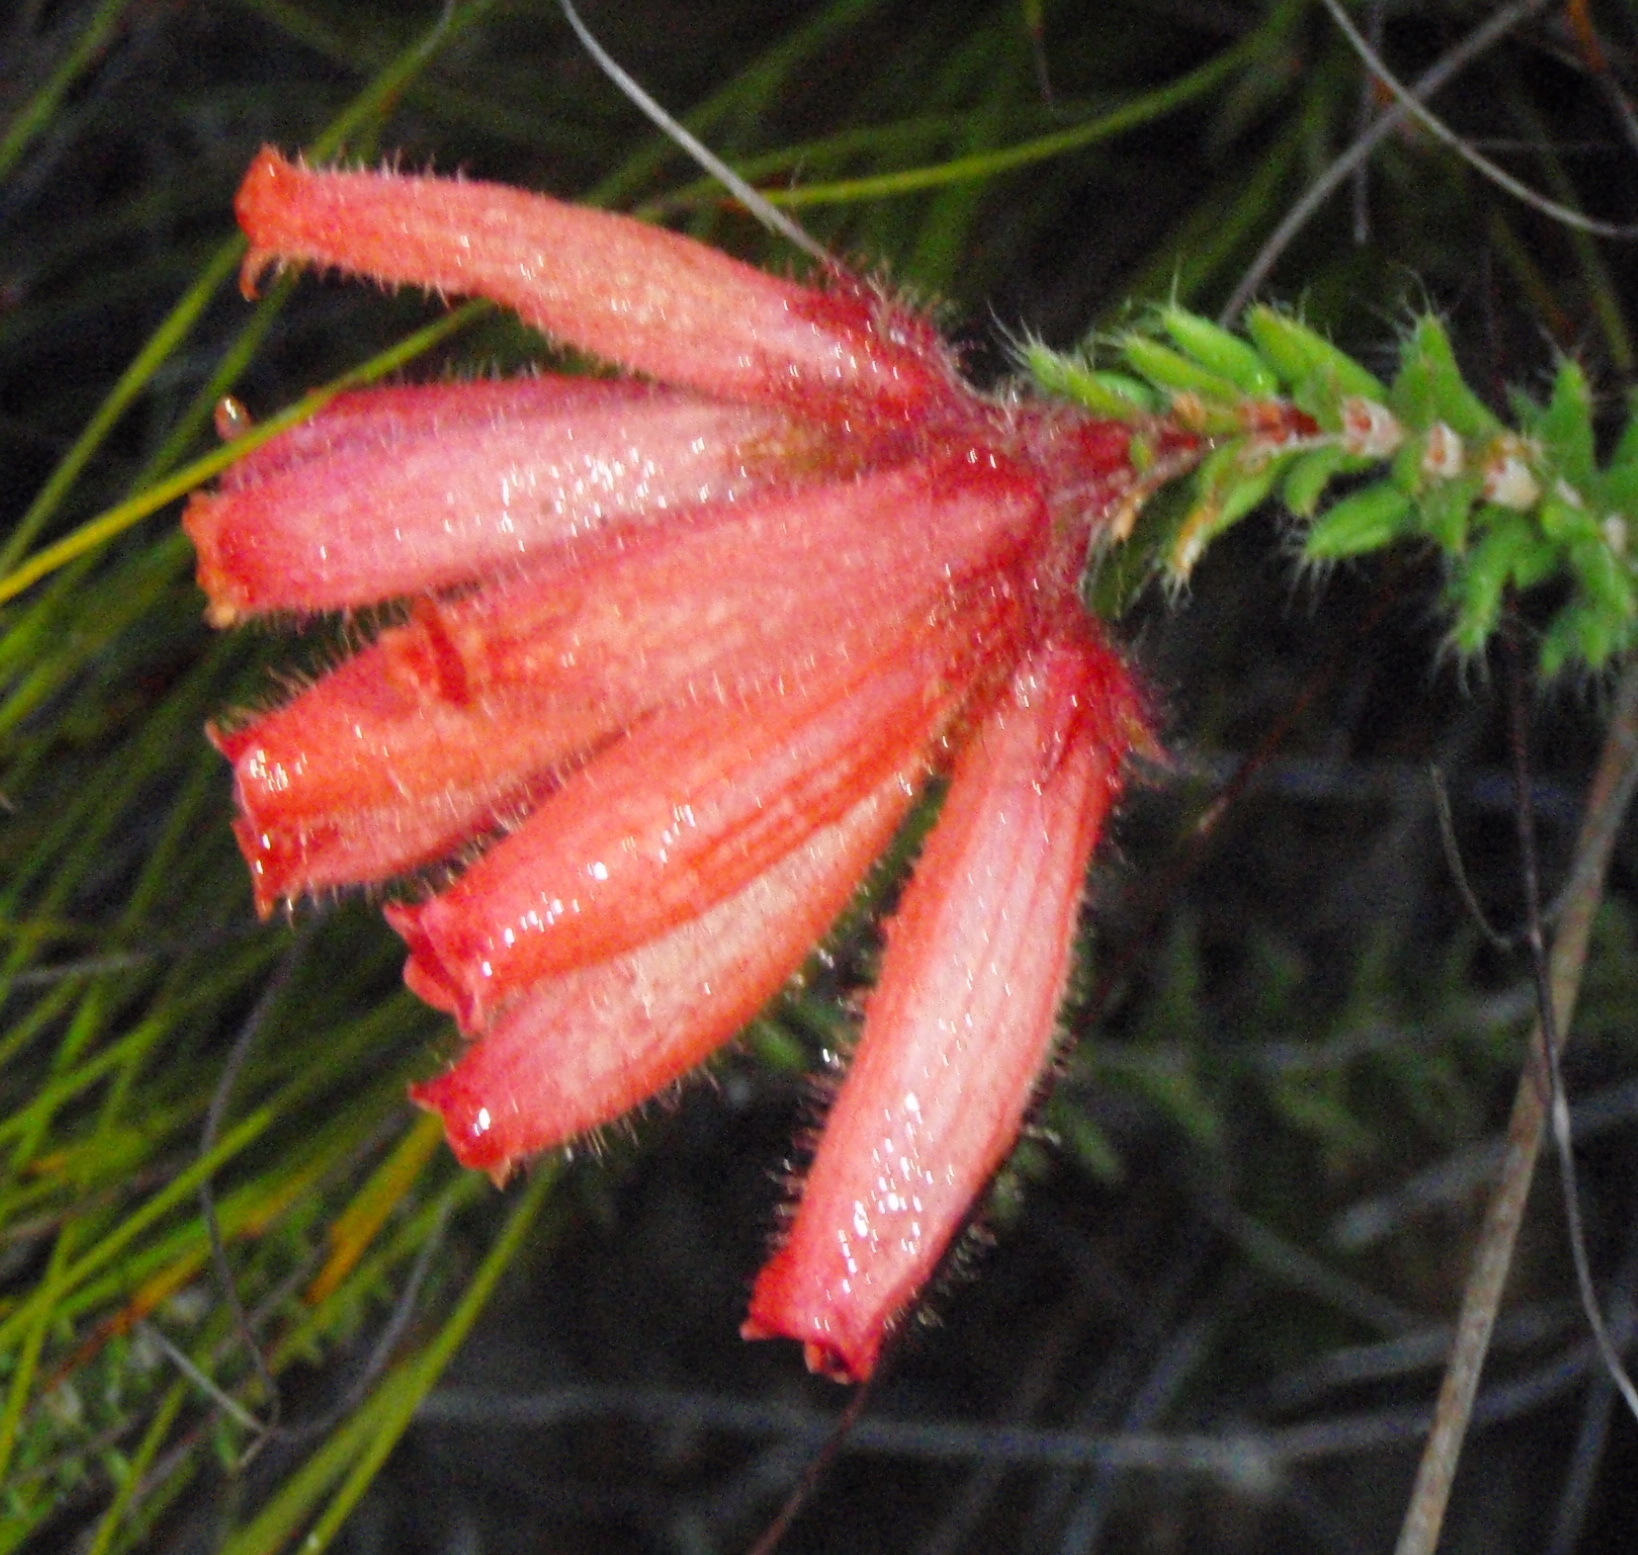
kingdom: Plantae
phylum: Tracheophyta
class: Magnoliopsida
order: Ericales
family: Ericaceae
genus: Erica
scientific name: Erica cerinthoides
